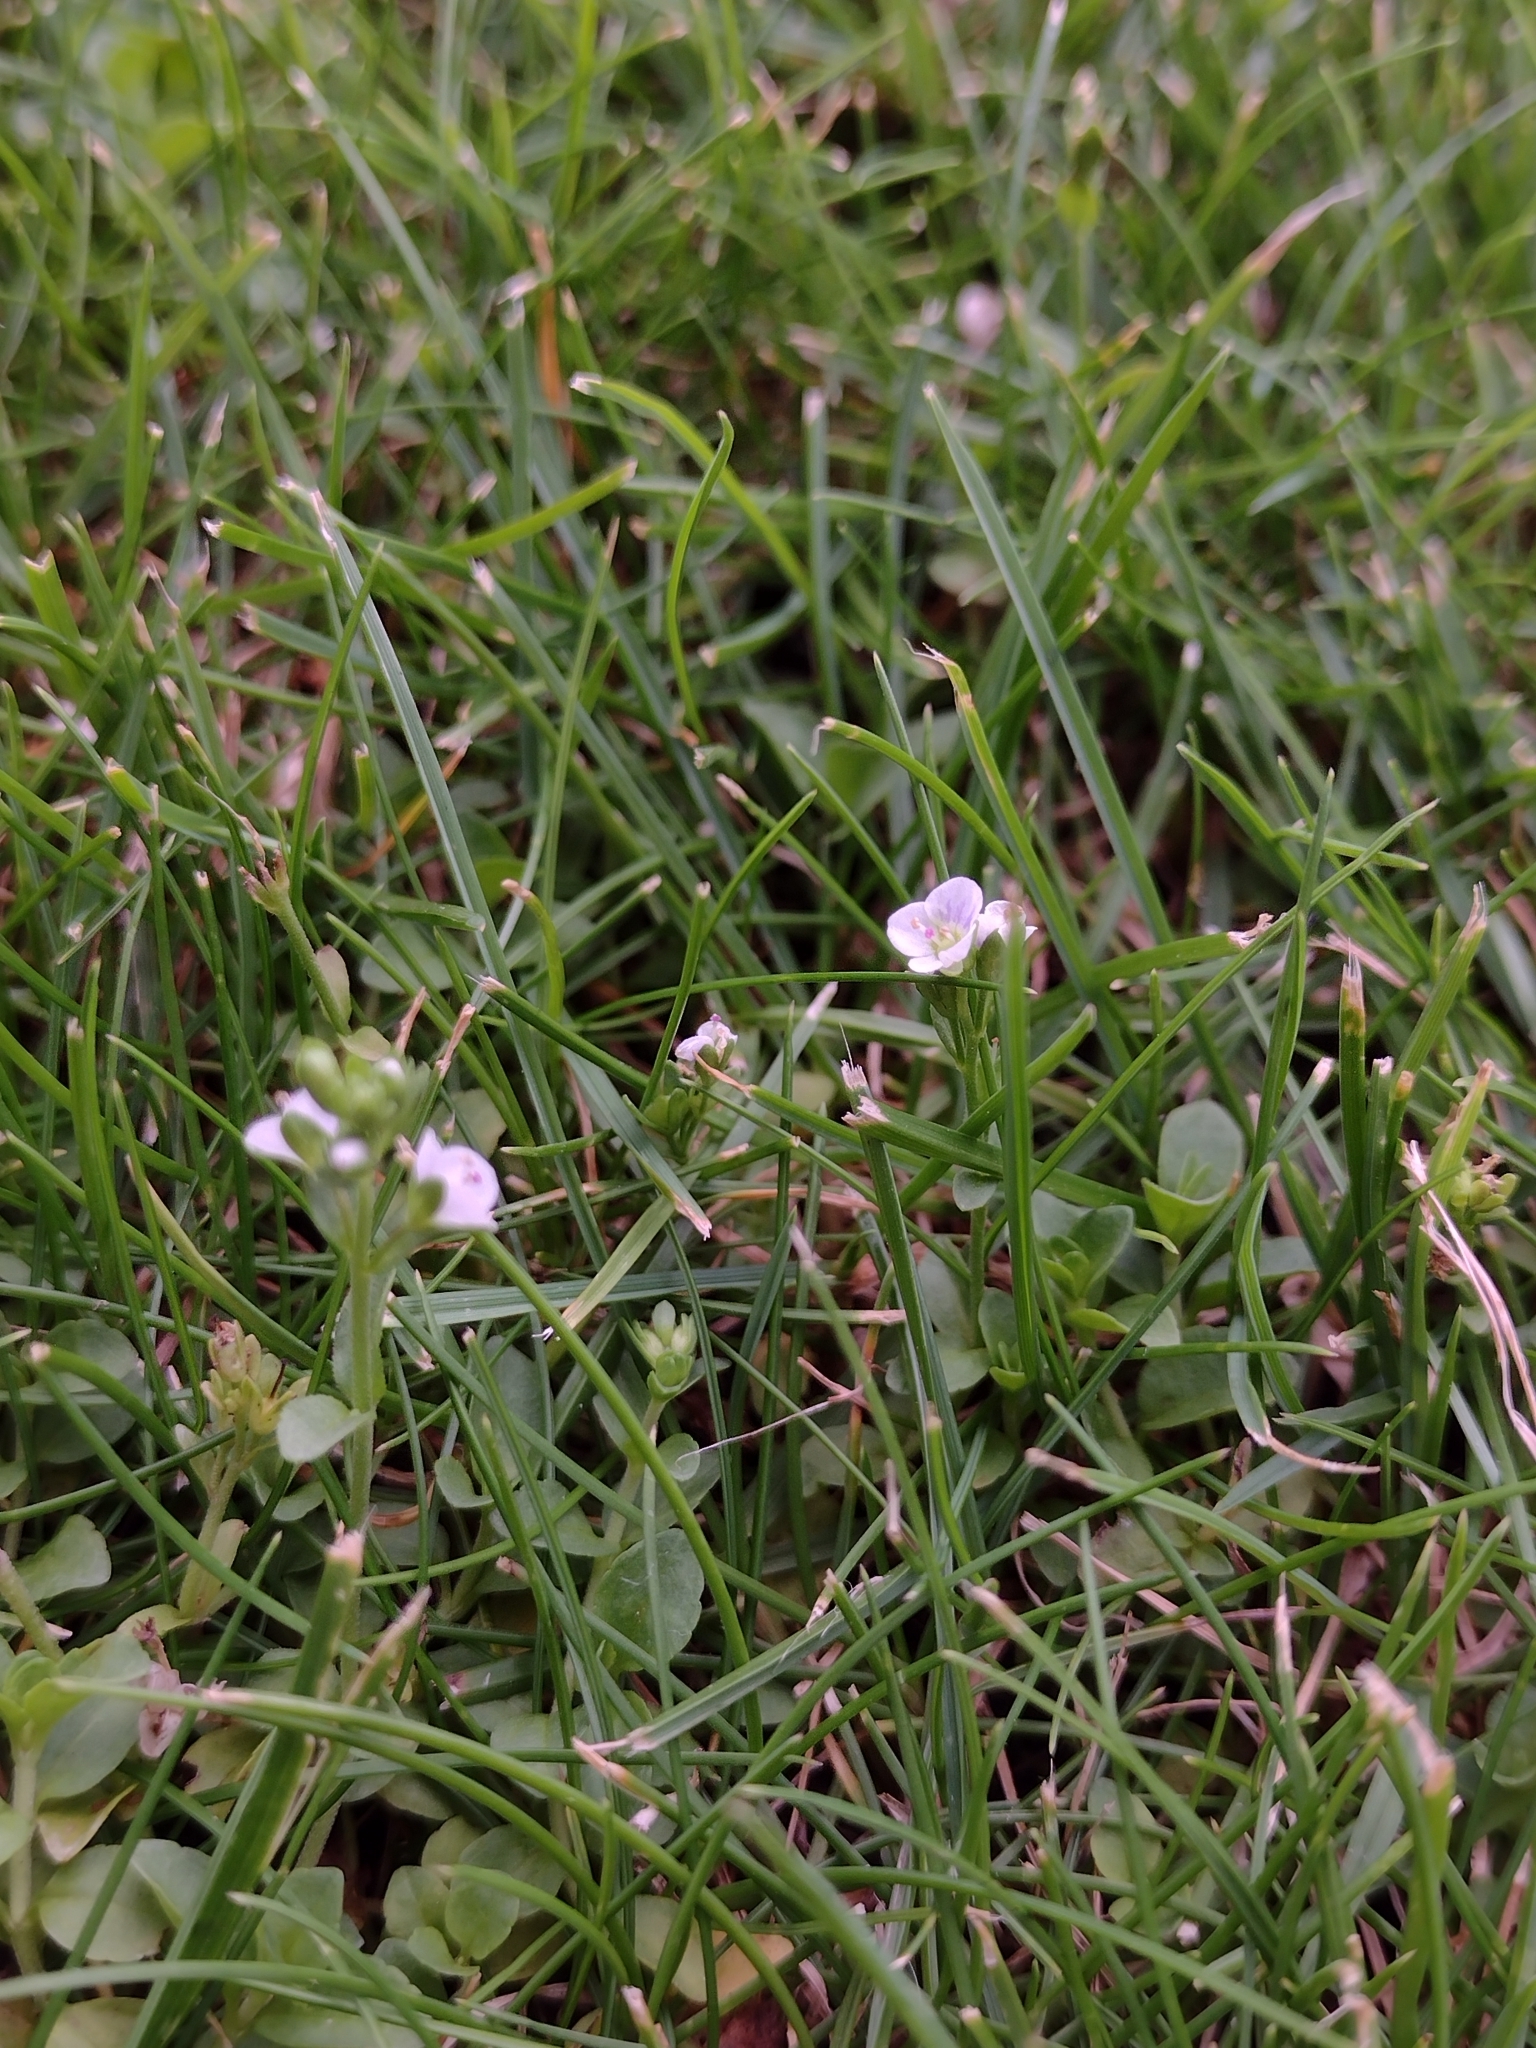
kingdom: Plantae
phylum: Tracheophyta
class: Magnoliopsida
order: Lamiales
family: Plantaginaceae
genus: Veronica
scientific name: Veronica serpyllifolia
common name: Thyme-leaved speedwell
